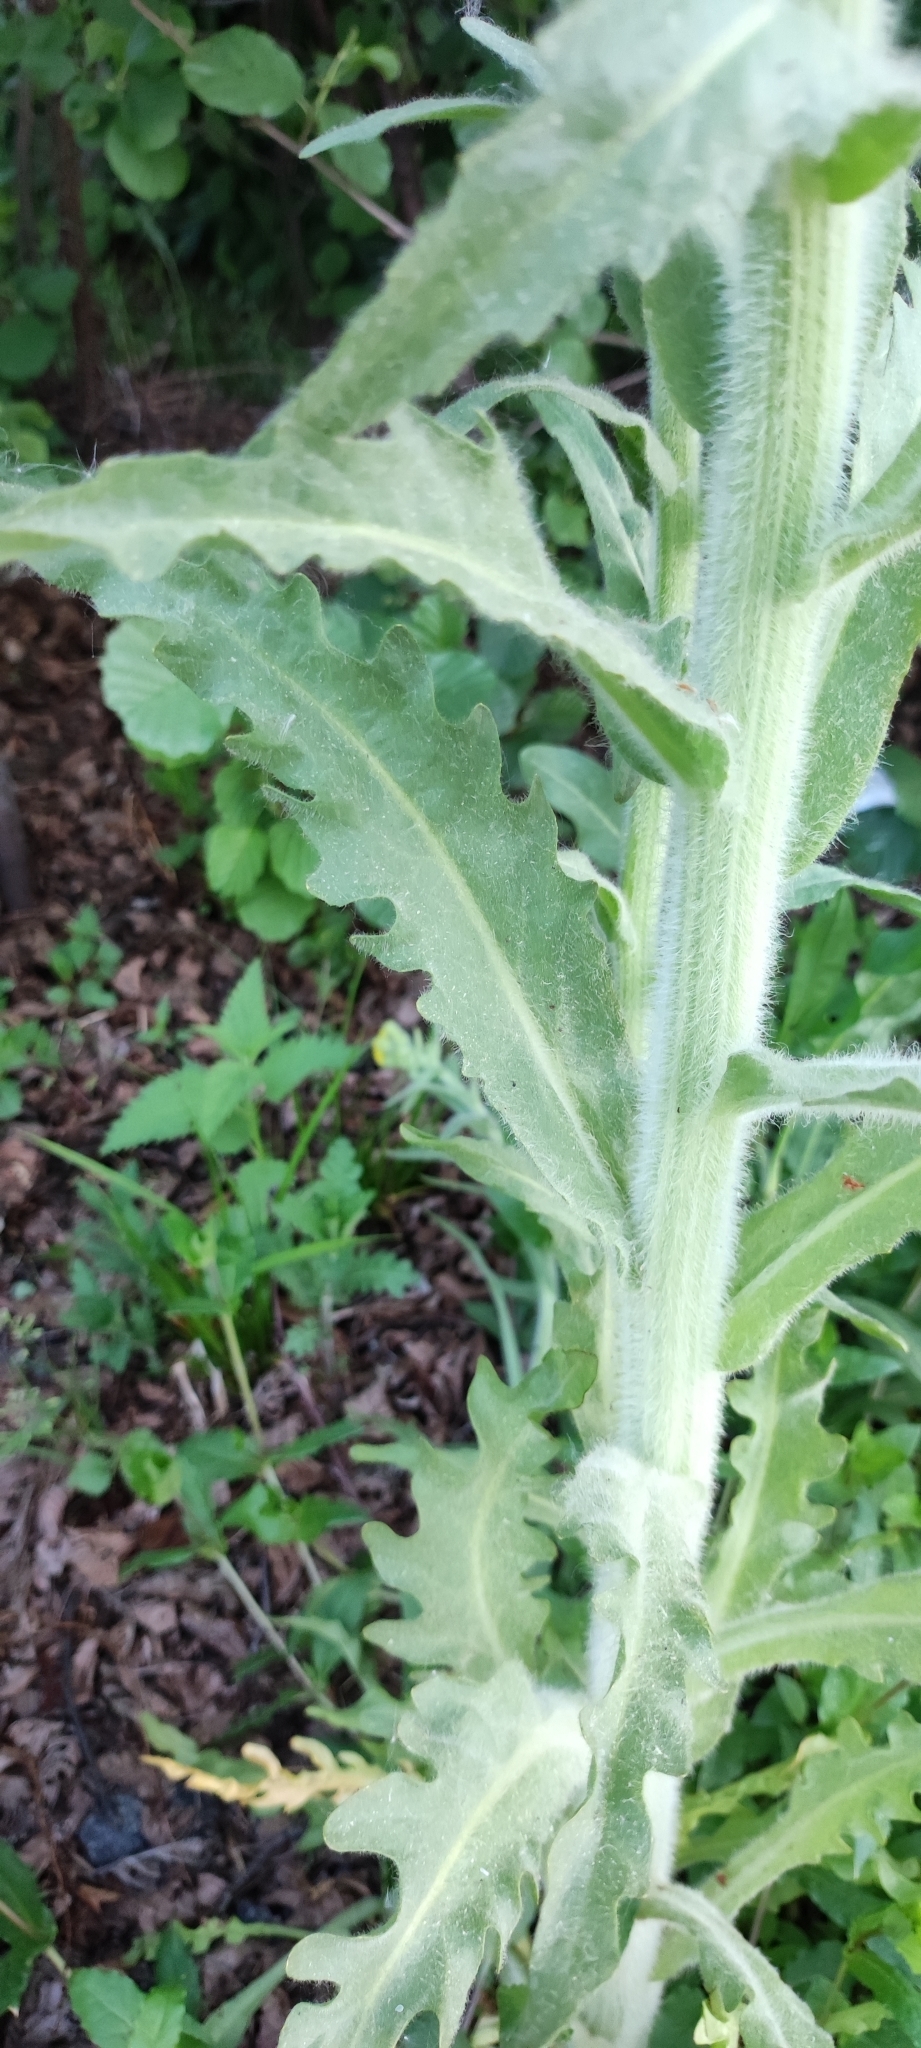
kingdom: Plantae
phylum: Tracheophyta
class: Magnoliopsida
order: Asterales
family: Asteraceae
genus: Tephroseris
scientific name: Tephroseris palustris
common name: Marsh fleawort
